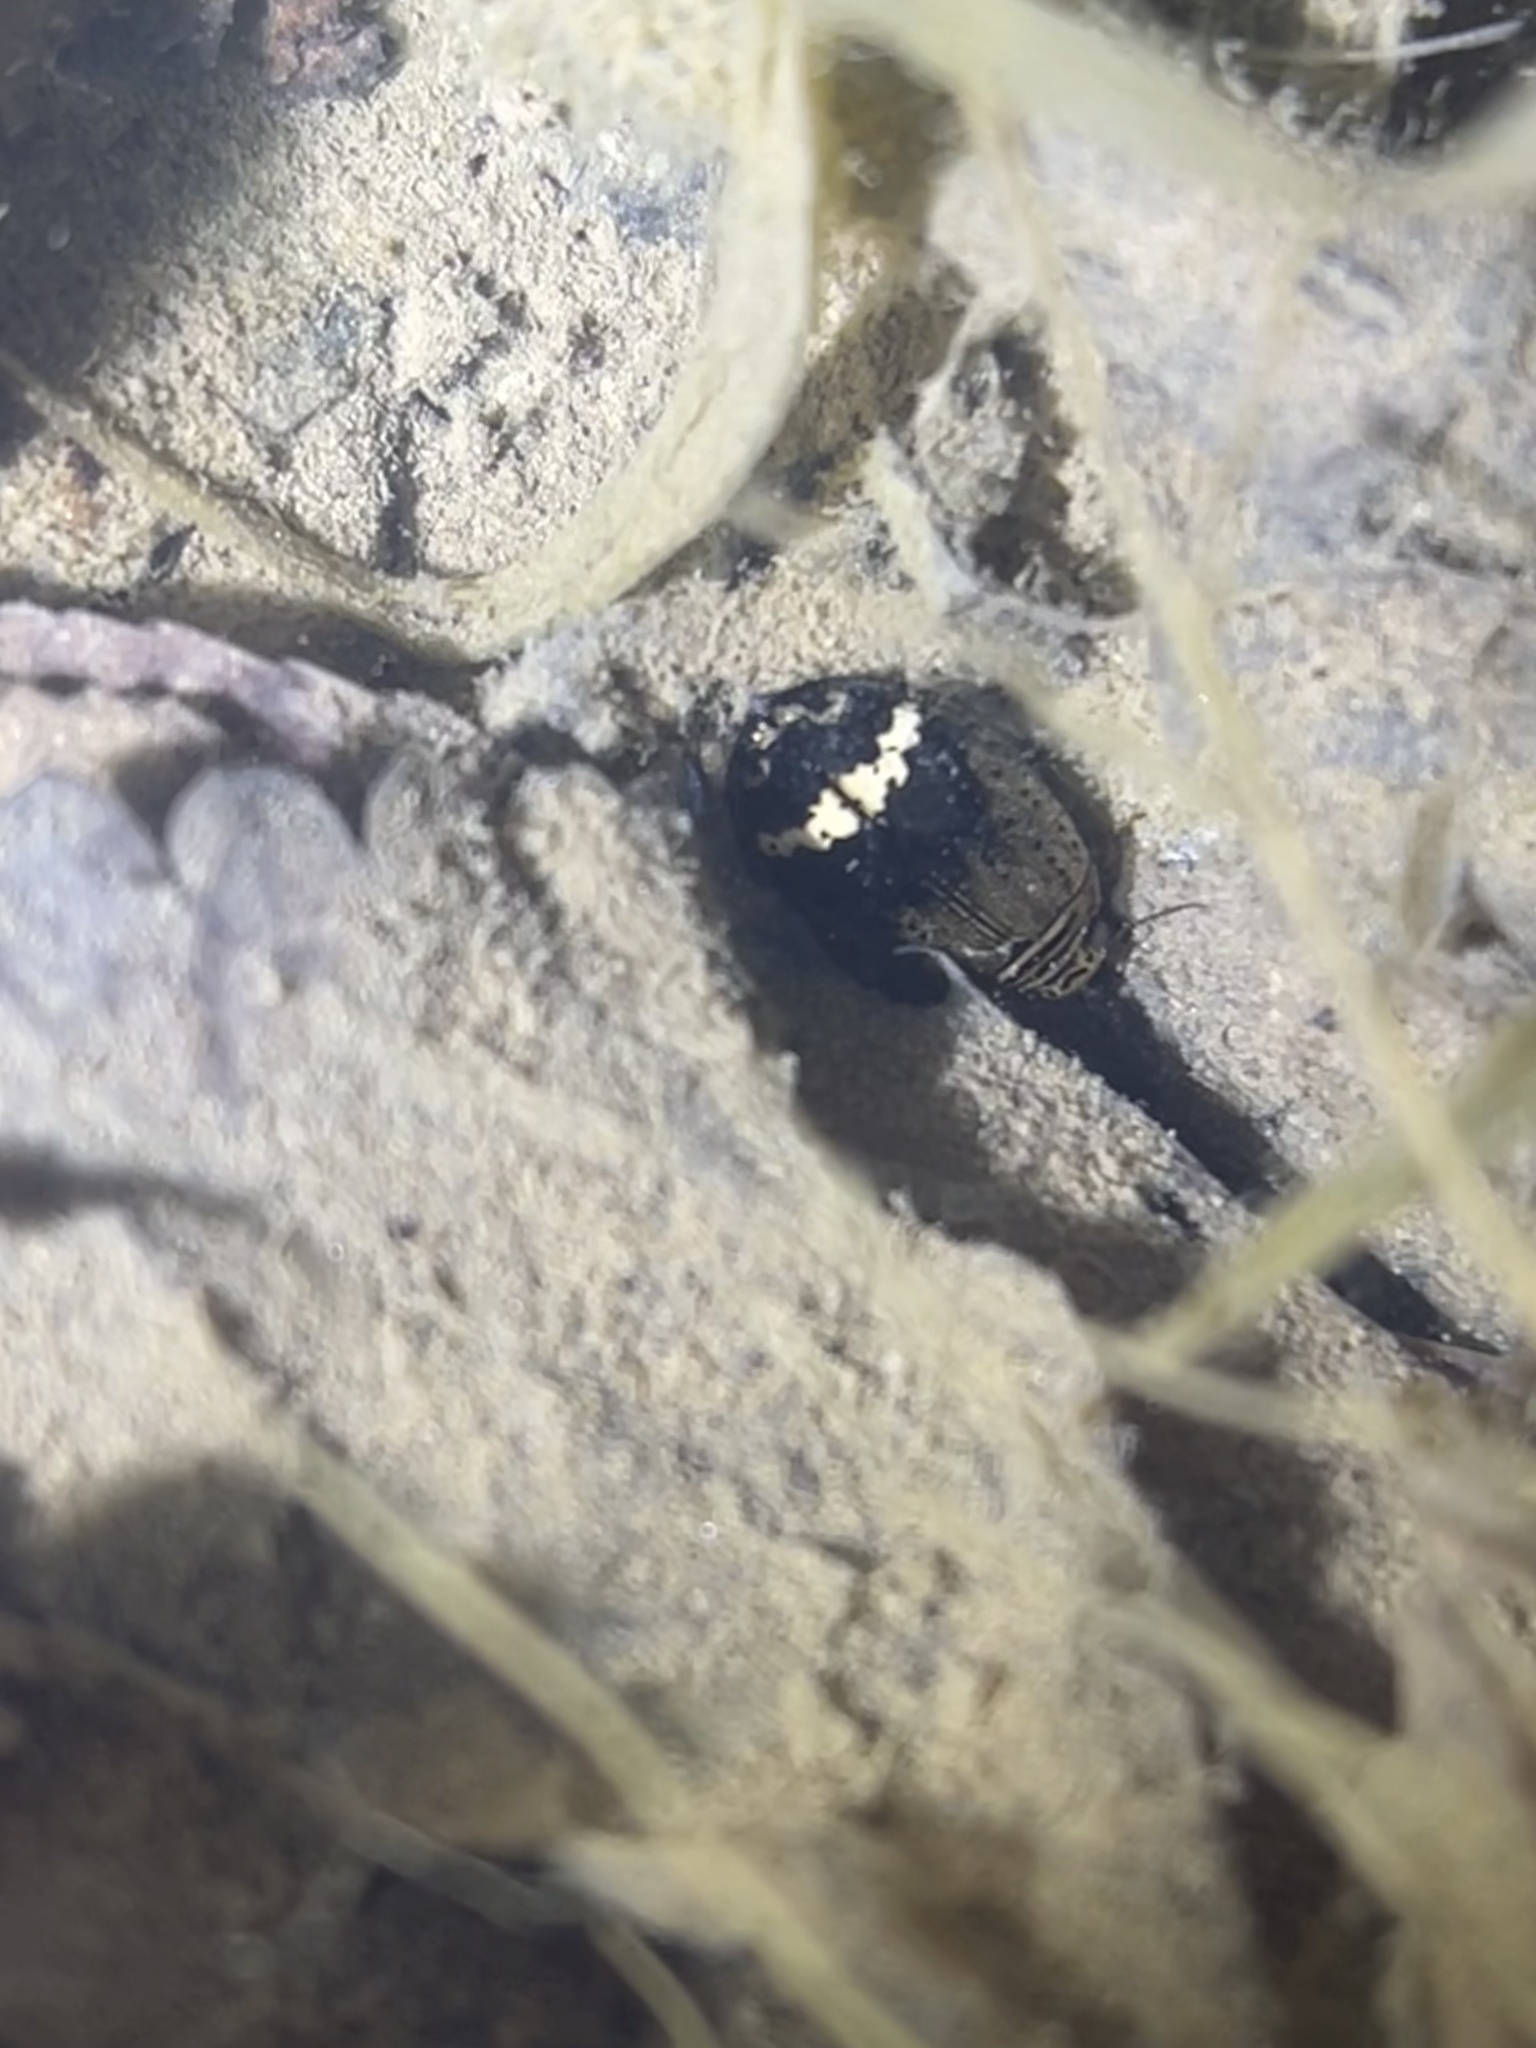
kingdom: Animalia
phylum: Arthropoda
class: Insecta
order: Coleoptera
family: Dytiscidae
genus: Acilius
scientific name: Acilius mediatus
